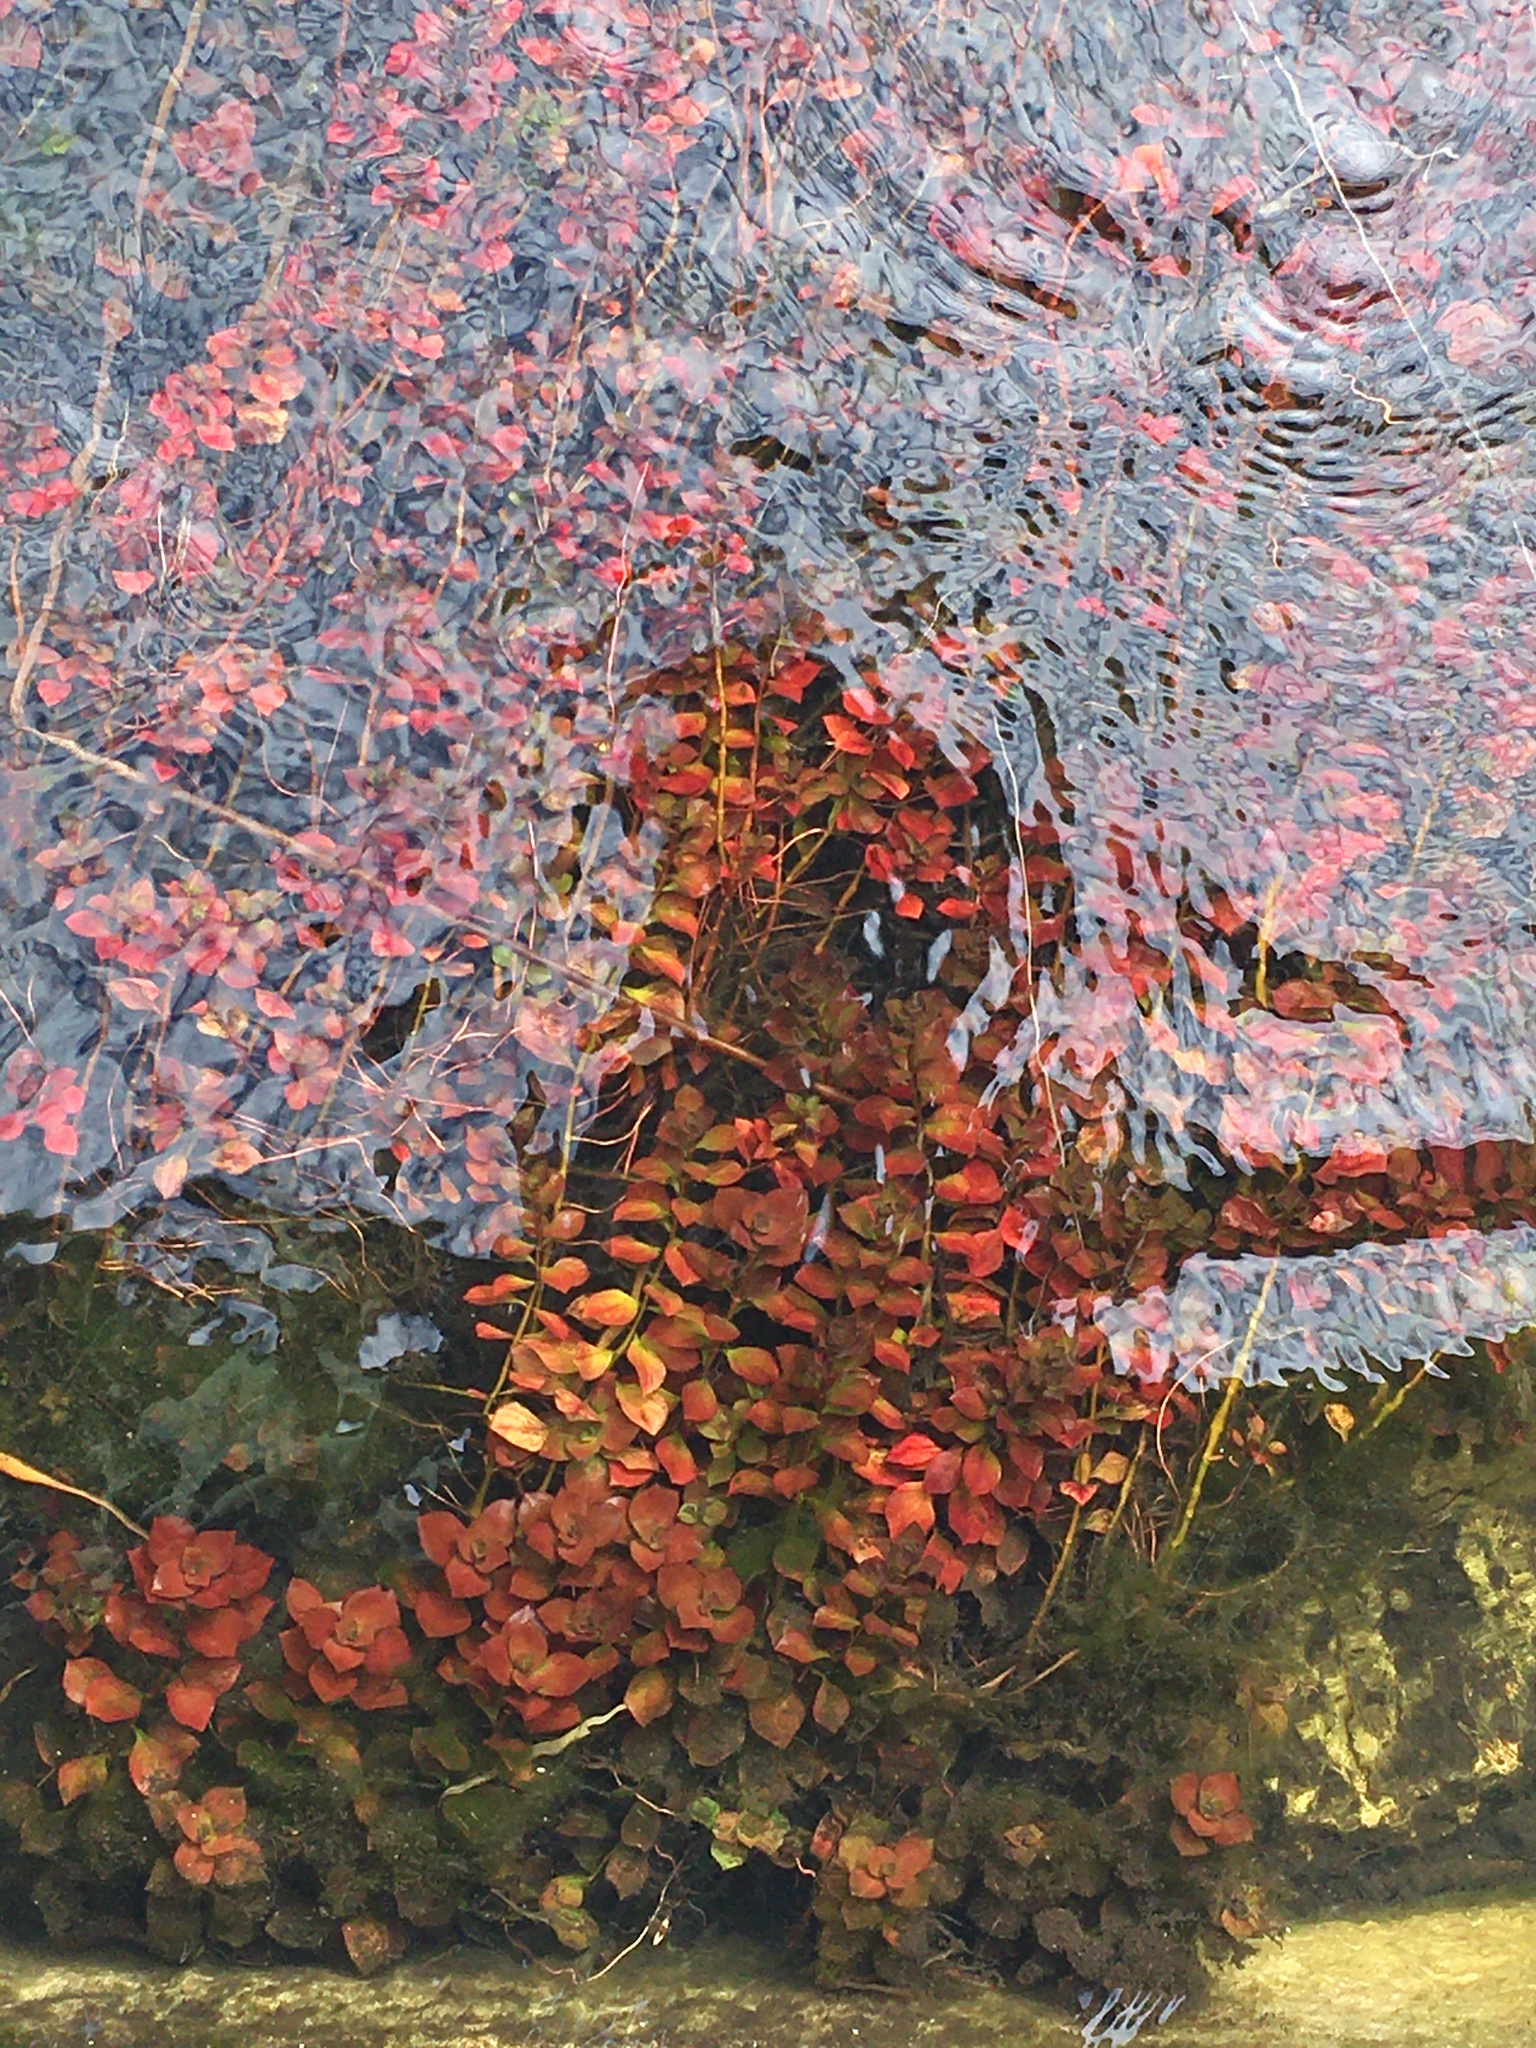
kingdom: Plantae
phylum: Tracheophyta
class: Magnoliopsida
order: Myrtales
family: Onagraceae
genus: Ludwigia
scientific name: Ludwigia repens
